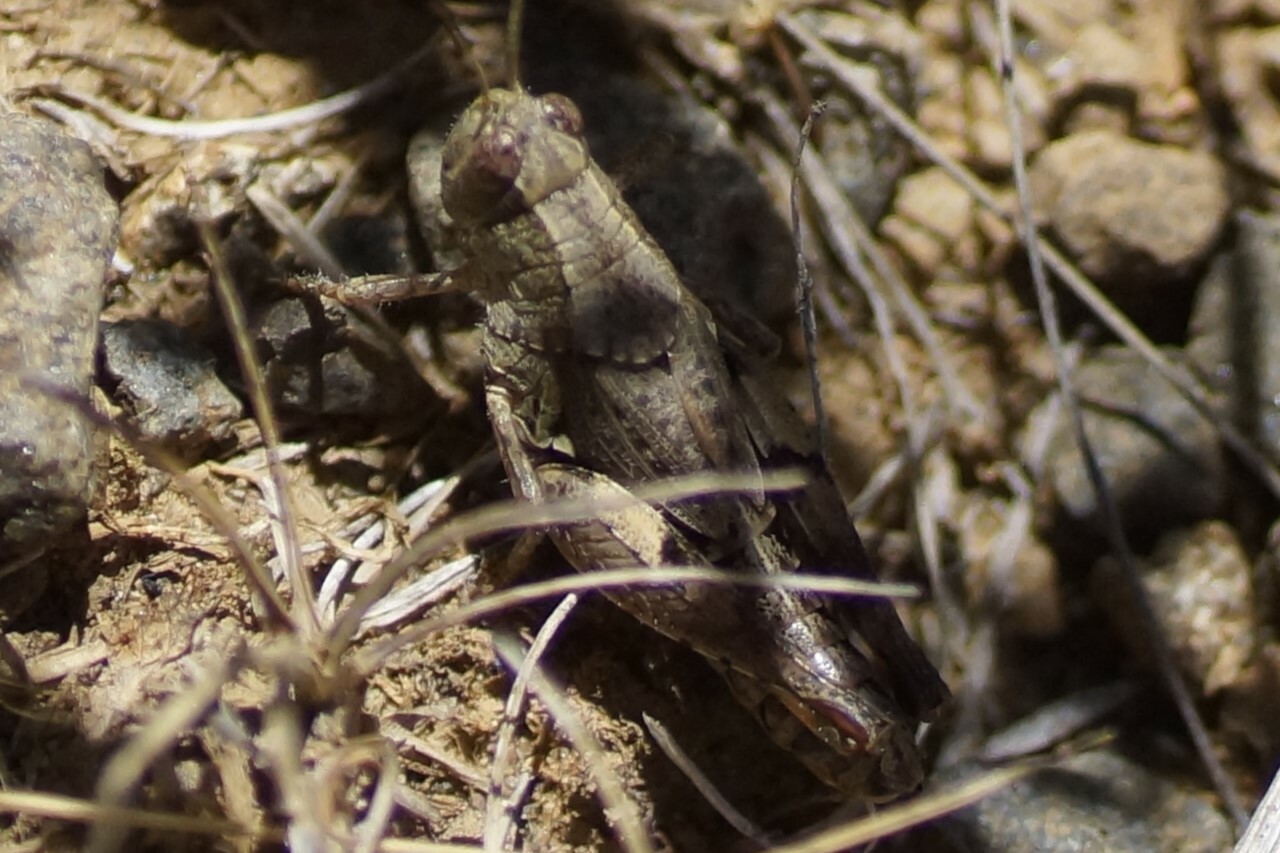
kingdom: Animalia
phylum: Arthropoda
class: Insecta
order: Orthoptera
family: Acrididae
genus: Phaulacridium
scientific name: Phaulacridium vittatum
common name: Wingless grasshopper
